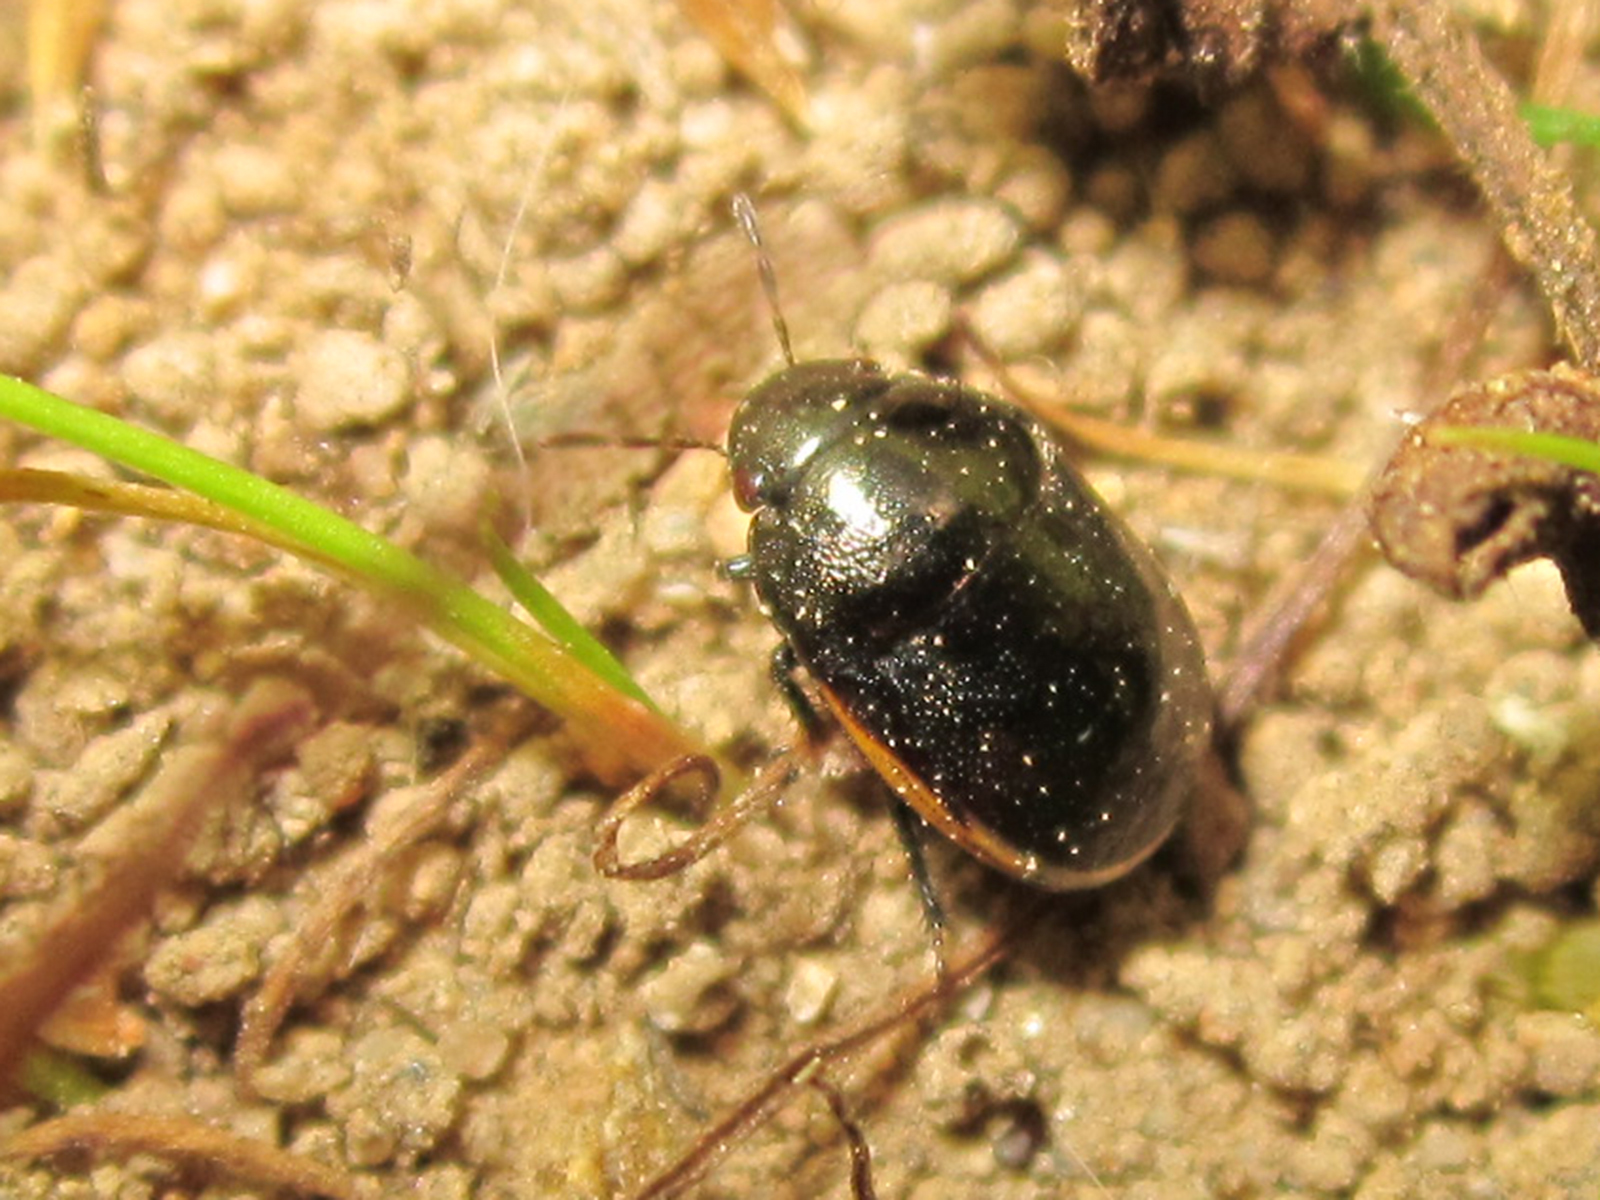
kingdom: Animalia
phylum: Arthropoda
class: Insecta
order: Hemiptera
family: Thyreocoridae
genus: Galgupha
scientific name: Galgupha albipennis
